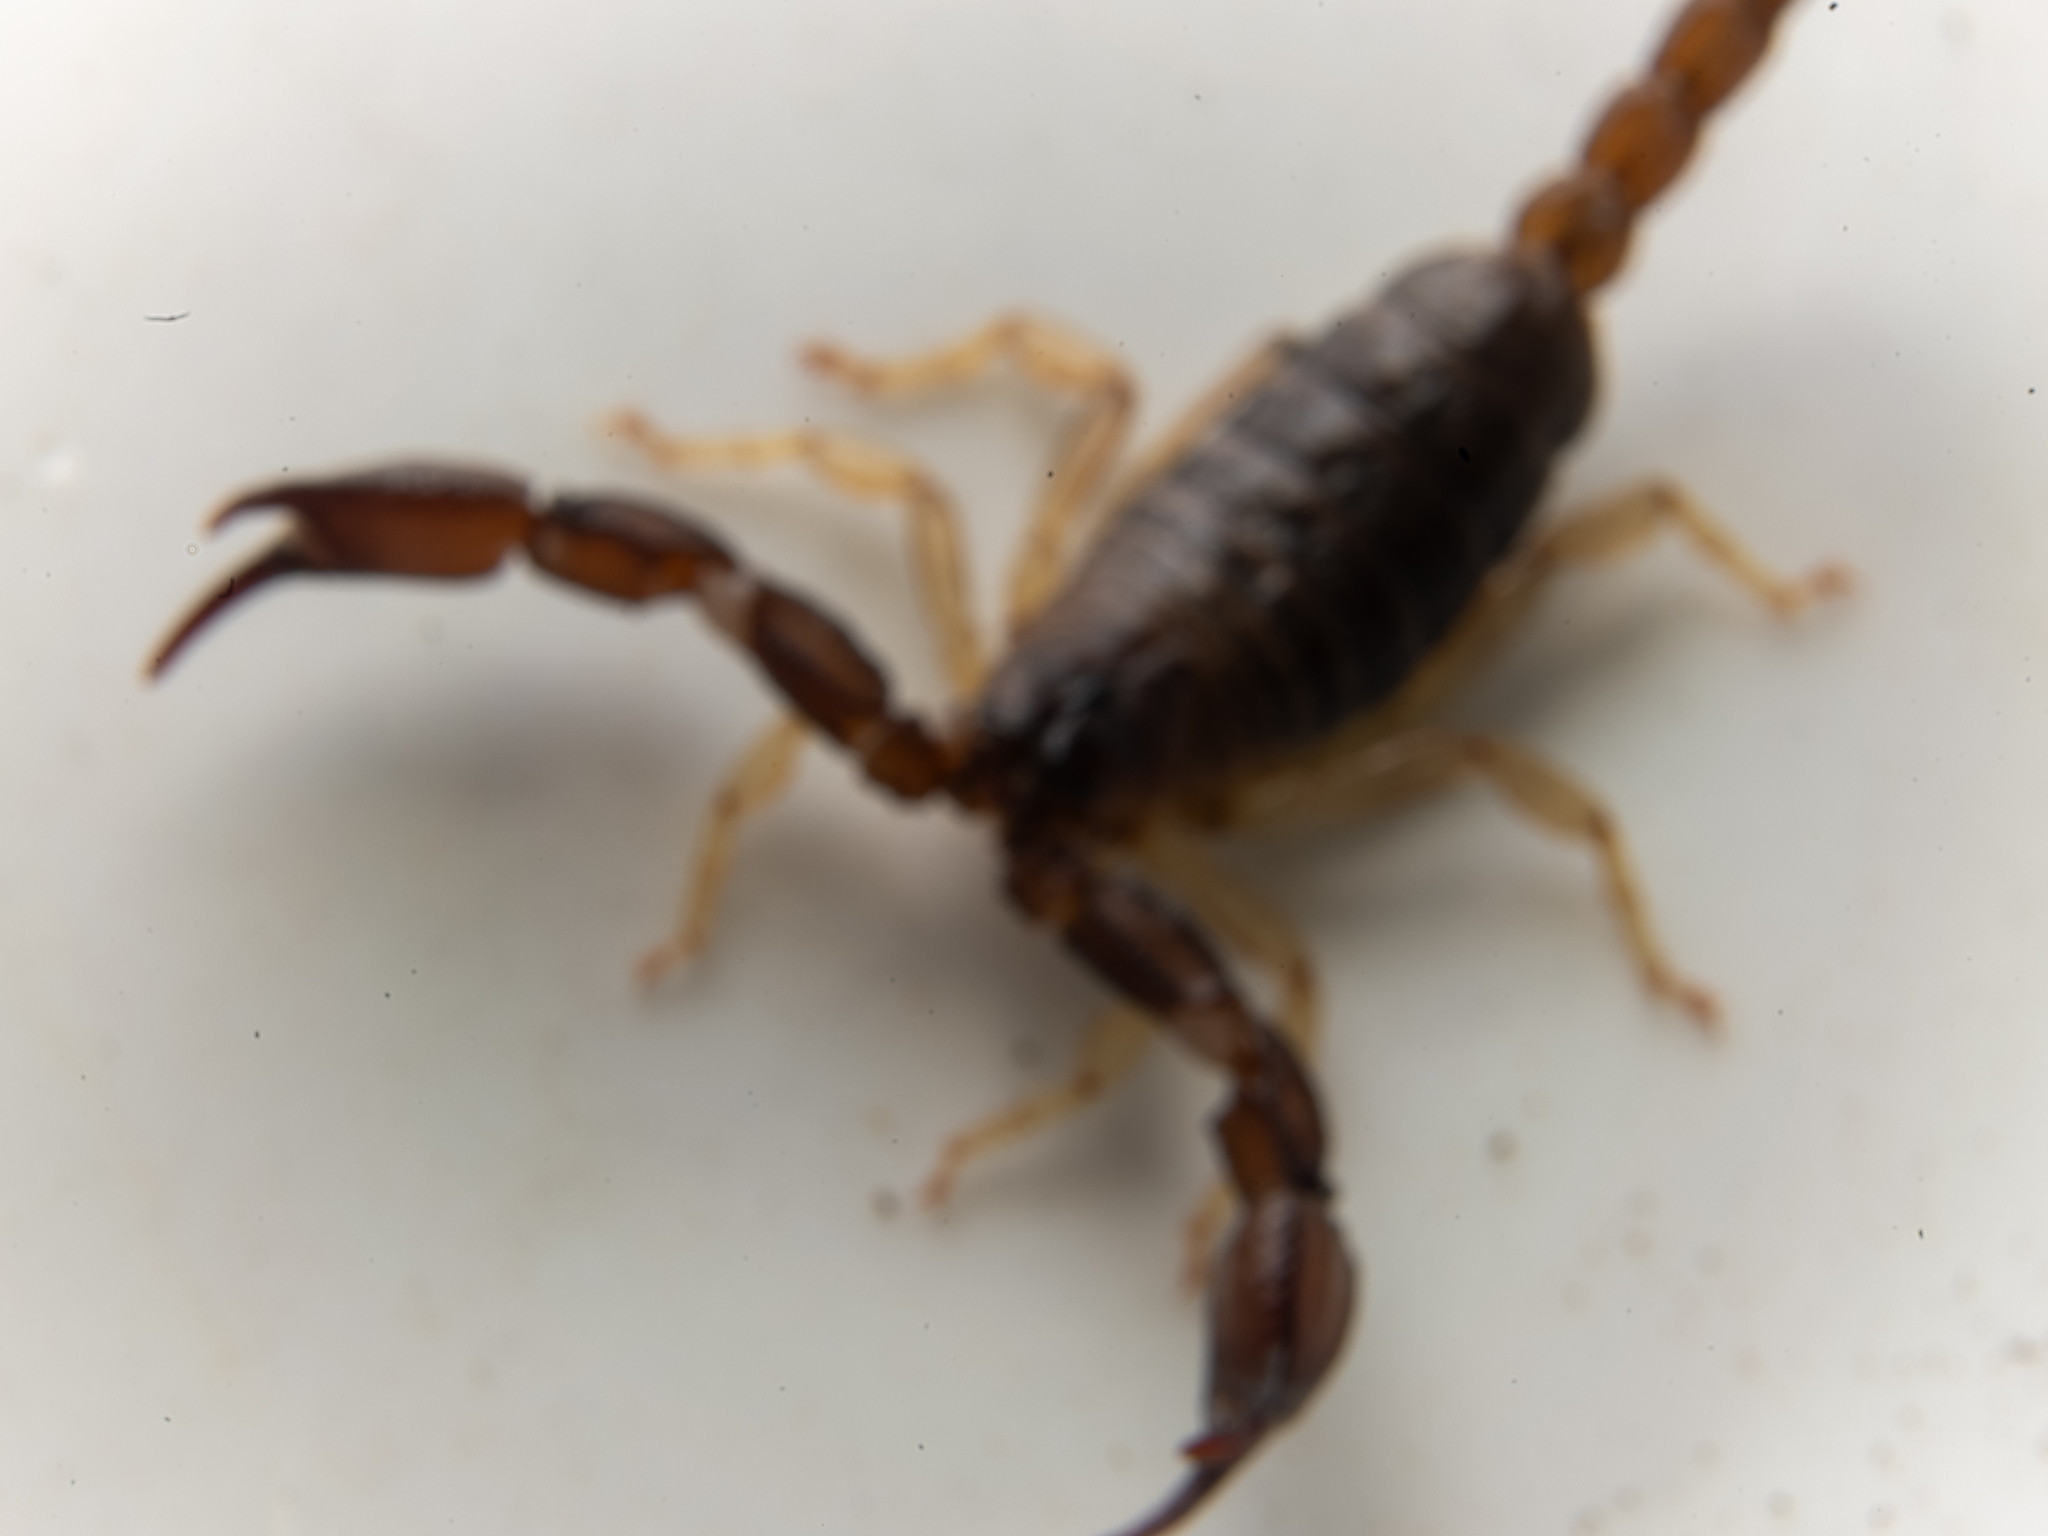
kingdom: Animalia
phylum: Arthropoda
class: Arachnida
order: Scorpiones
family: Chactidae
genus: Uroctonus
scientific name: Uroctonus mordax
